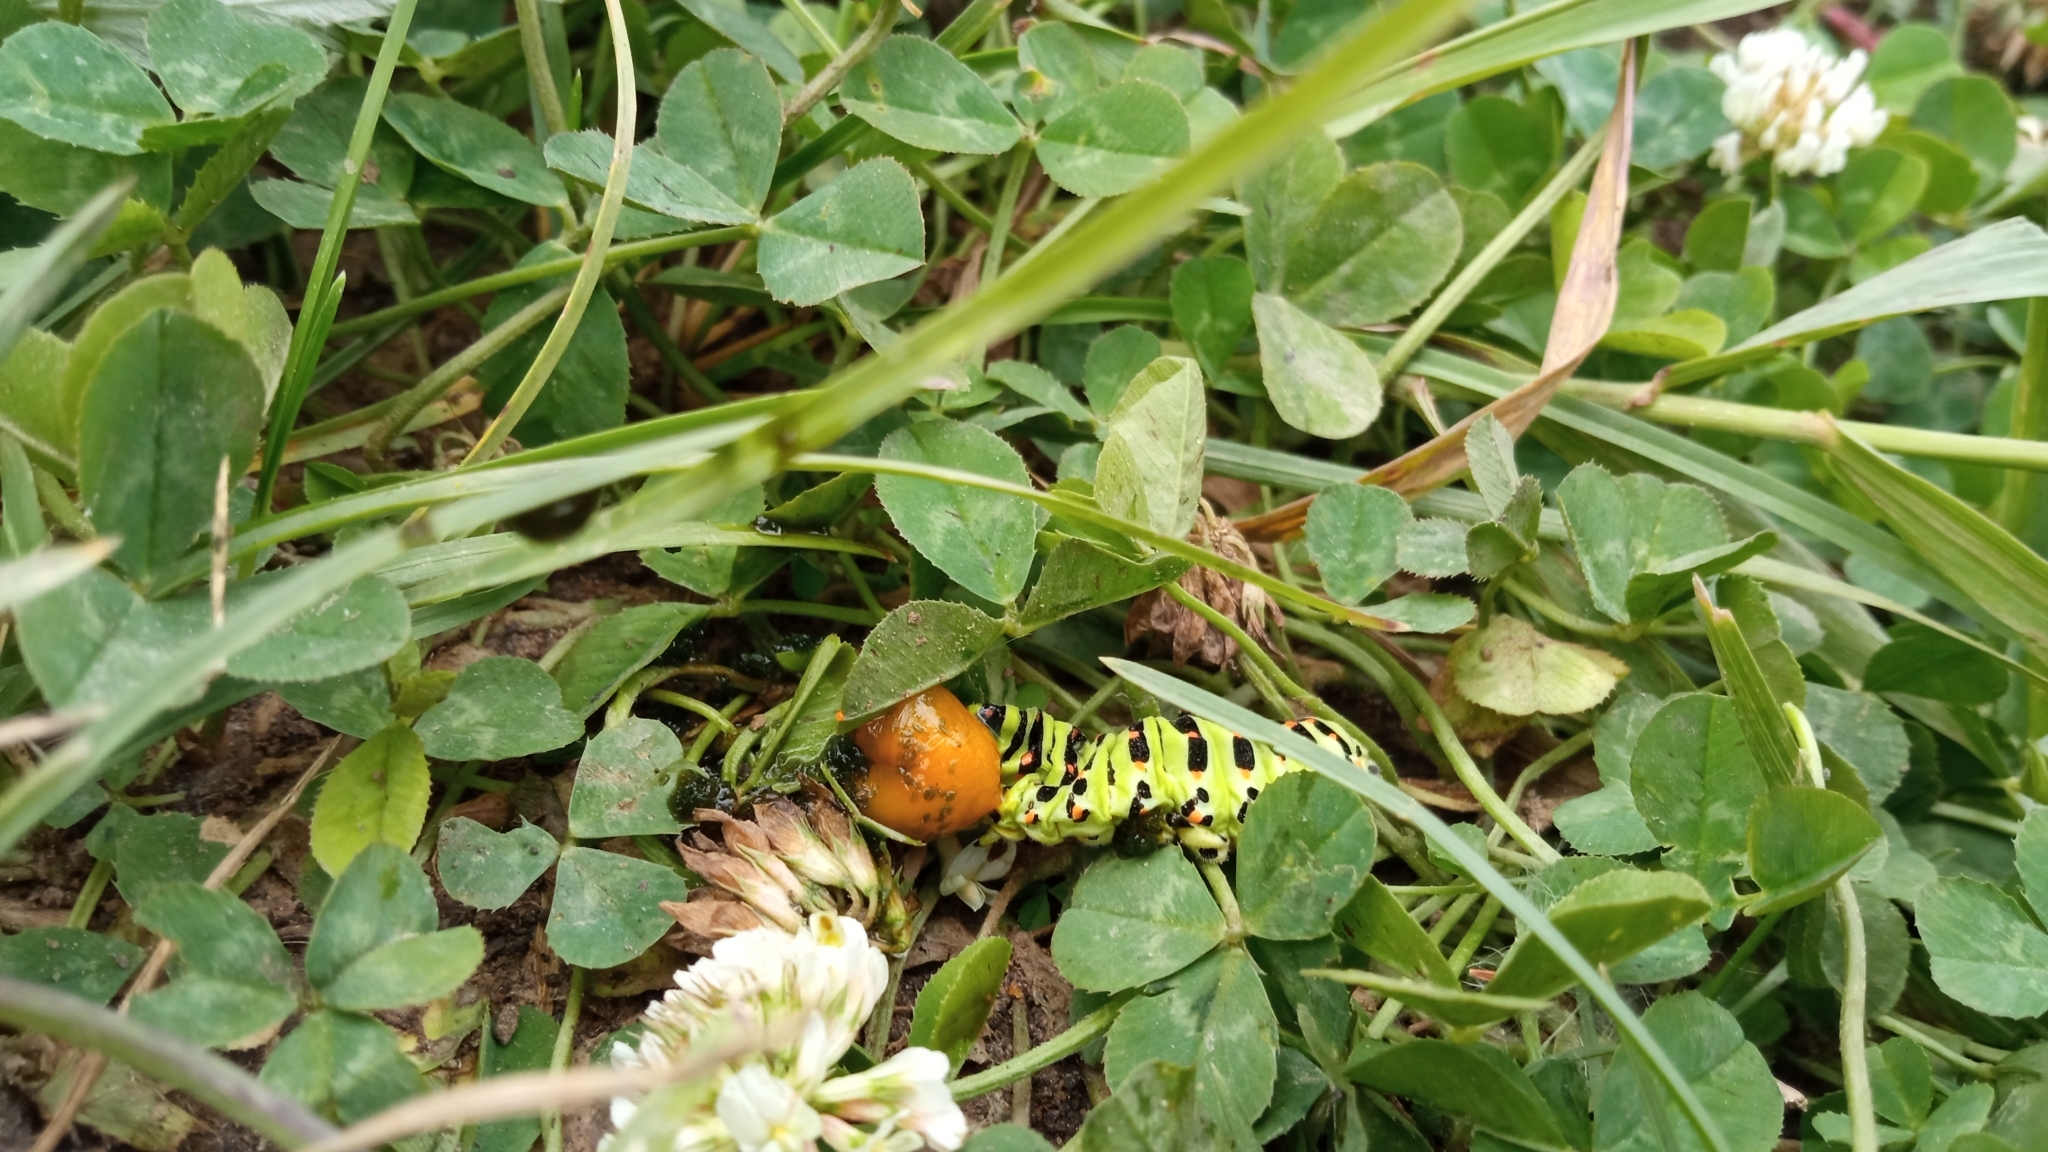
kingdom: Animalia
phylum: Arthropoda
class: Insecta
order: Lepidoptera
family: Papilionidae
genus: Papilio
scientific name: Papilio machaon
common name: Swallowtail
